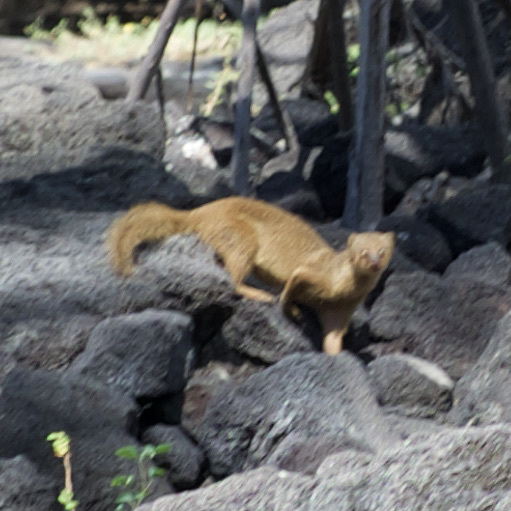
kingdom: Animalia
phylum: Chordata
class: Mammalia
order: Carnivora
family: Herpestidae
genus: Herpestes
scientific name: Herpestes javanicus
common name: Small asian mongoose
